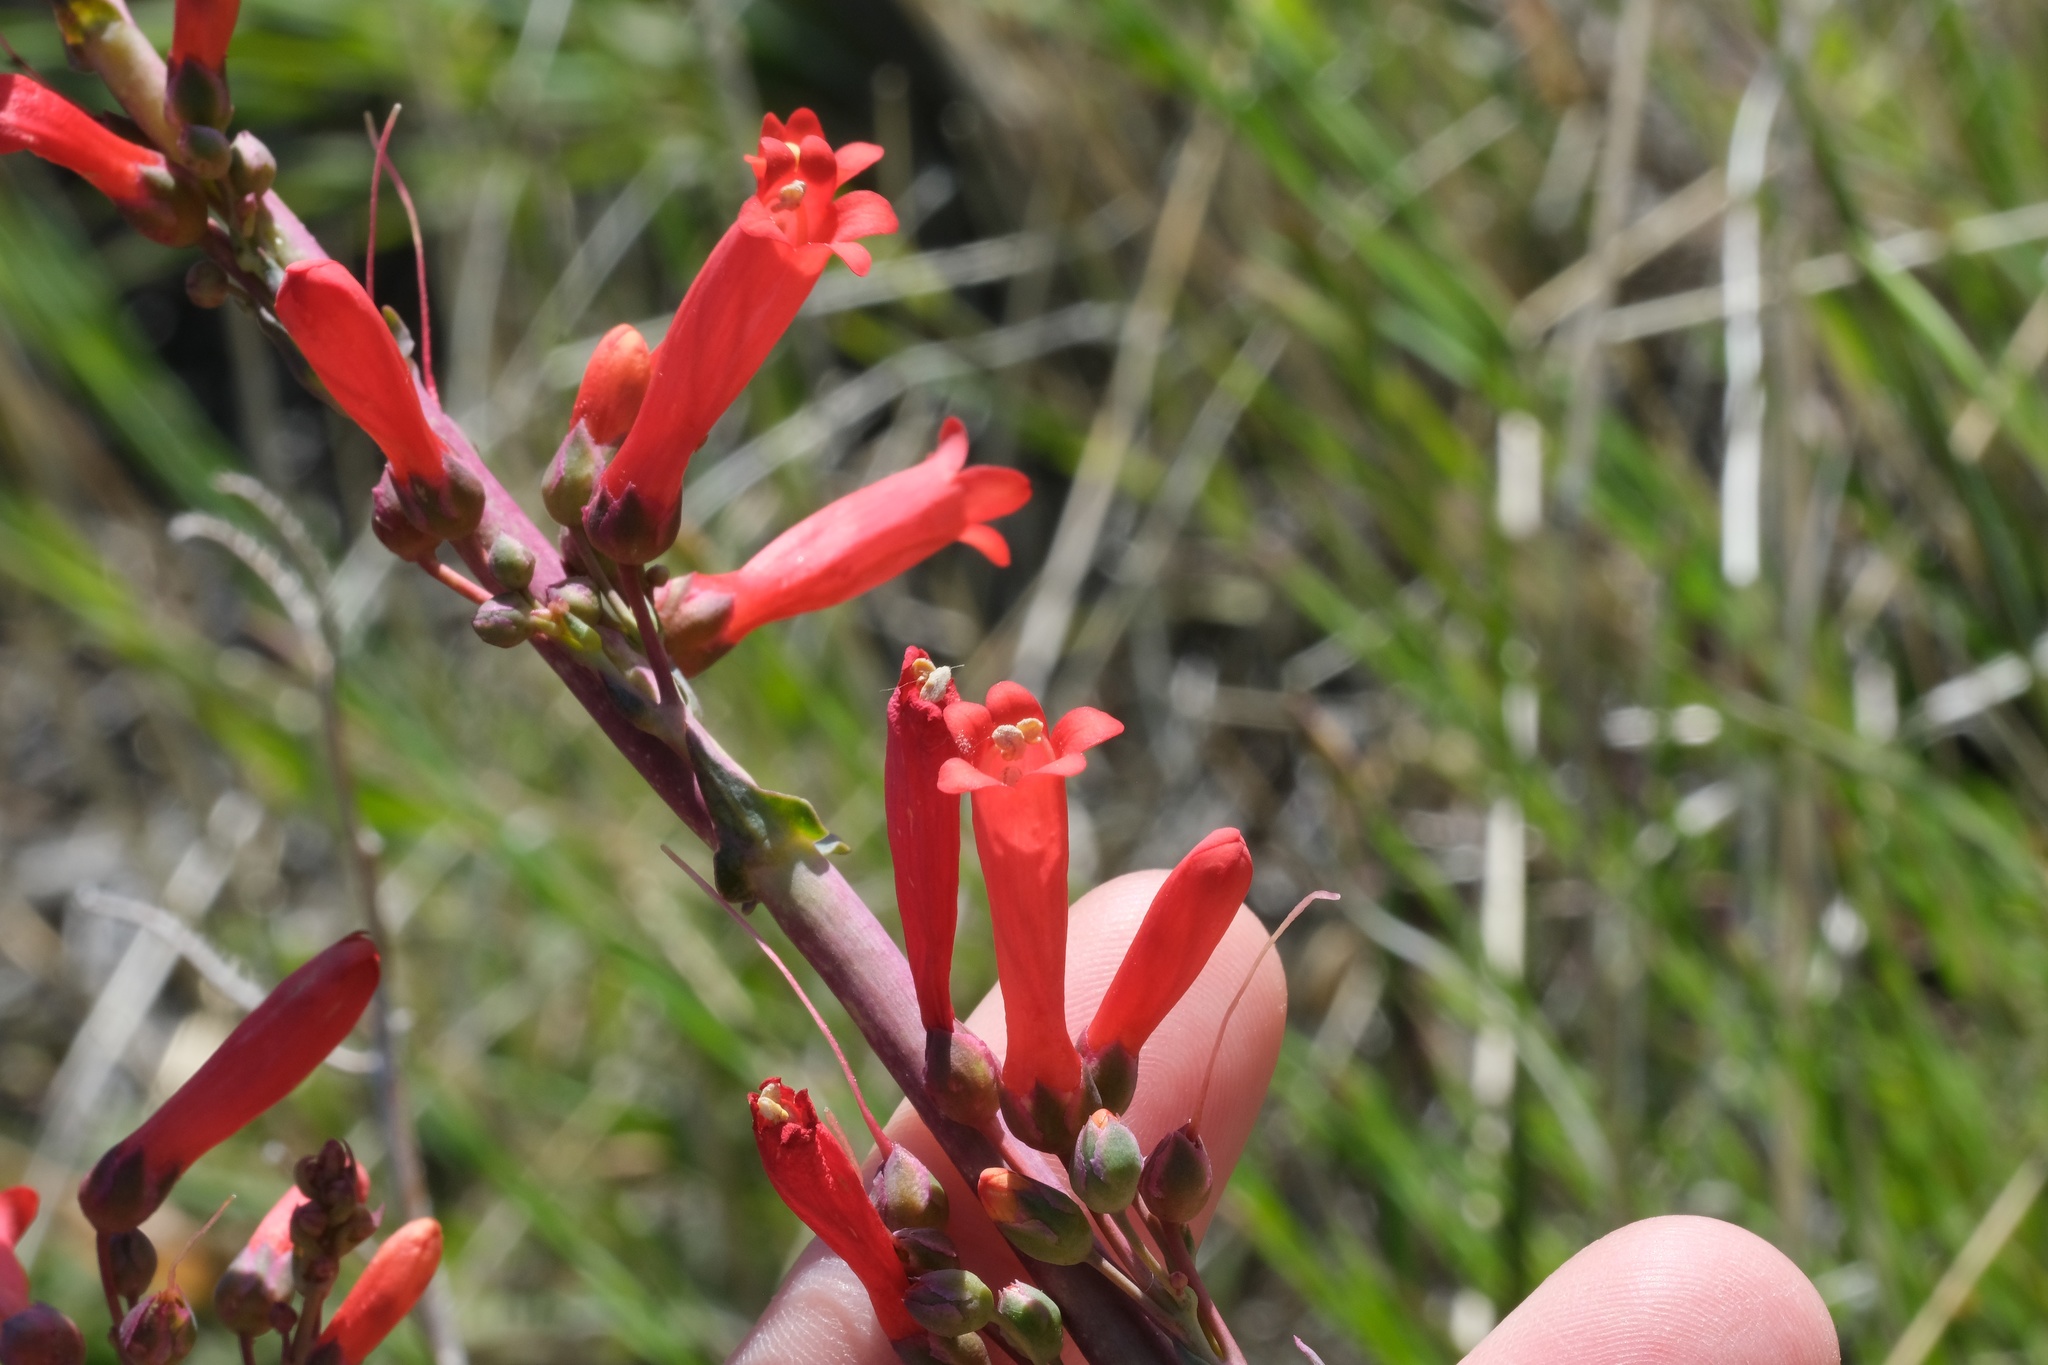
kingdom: Plantae
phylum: Tracheophyta
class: Magnoliopsida
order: Lamiales
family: Plantaginaceae
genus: Penstemon
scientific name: Penstemon centranthifolius
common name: Scarlet bugler
